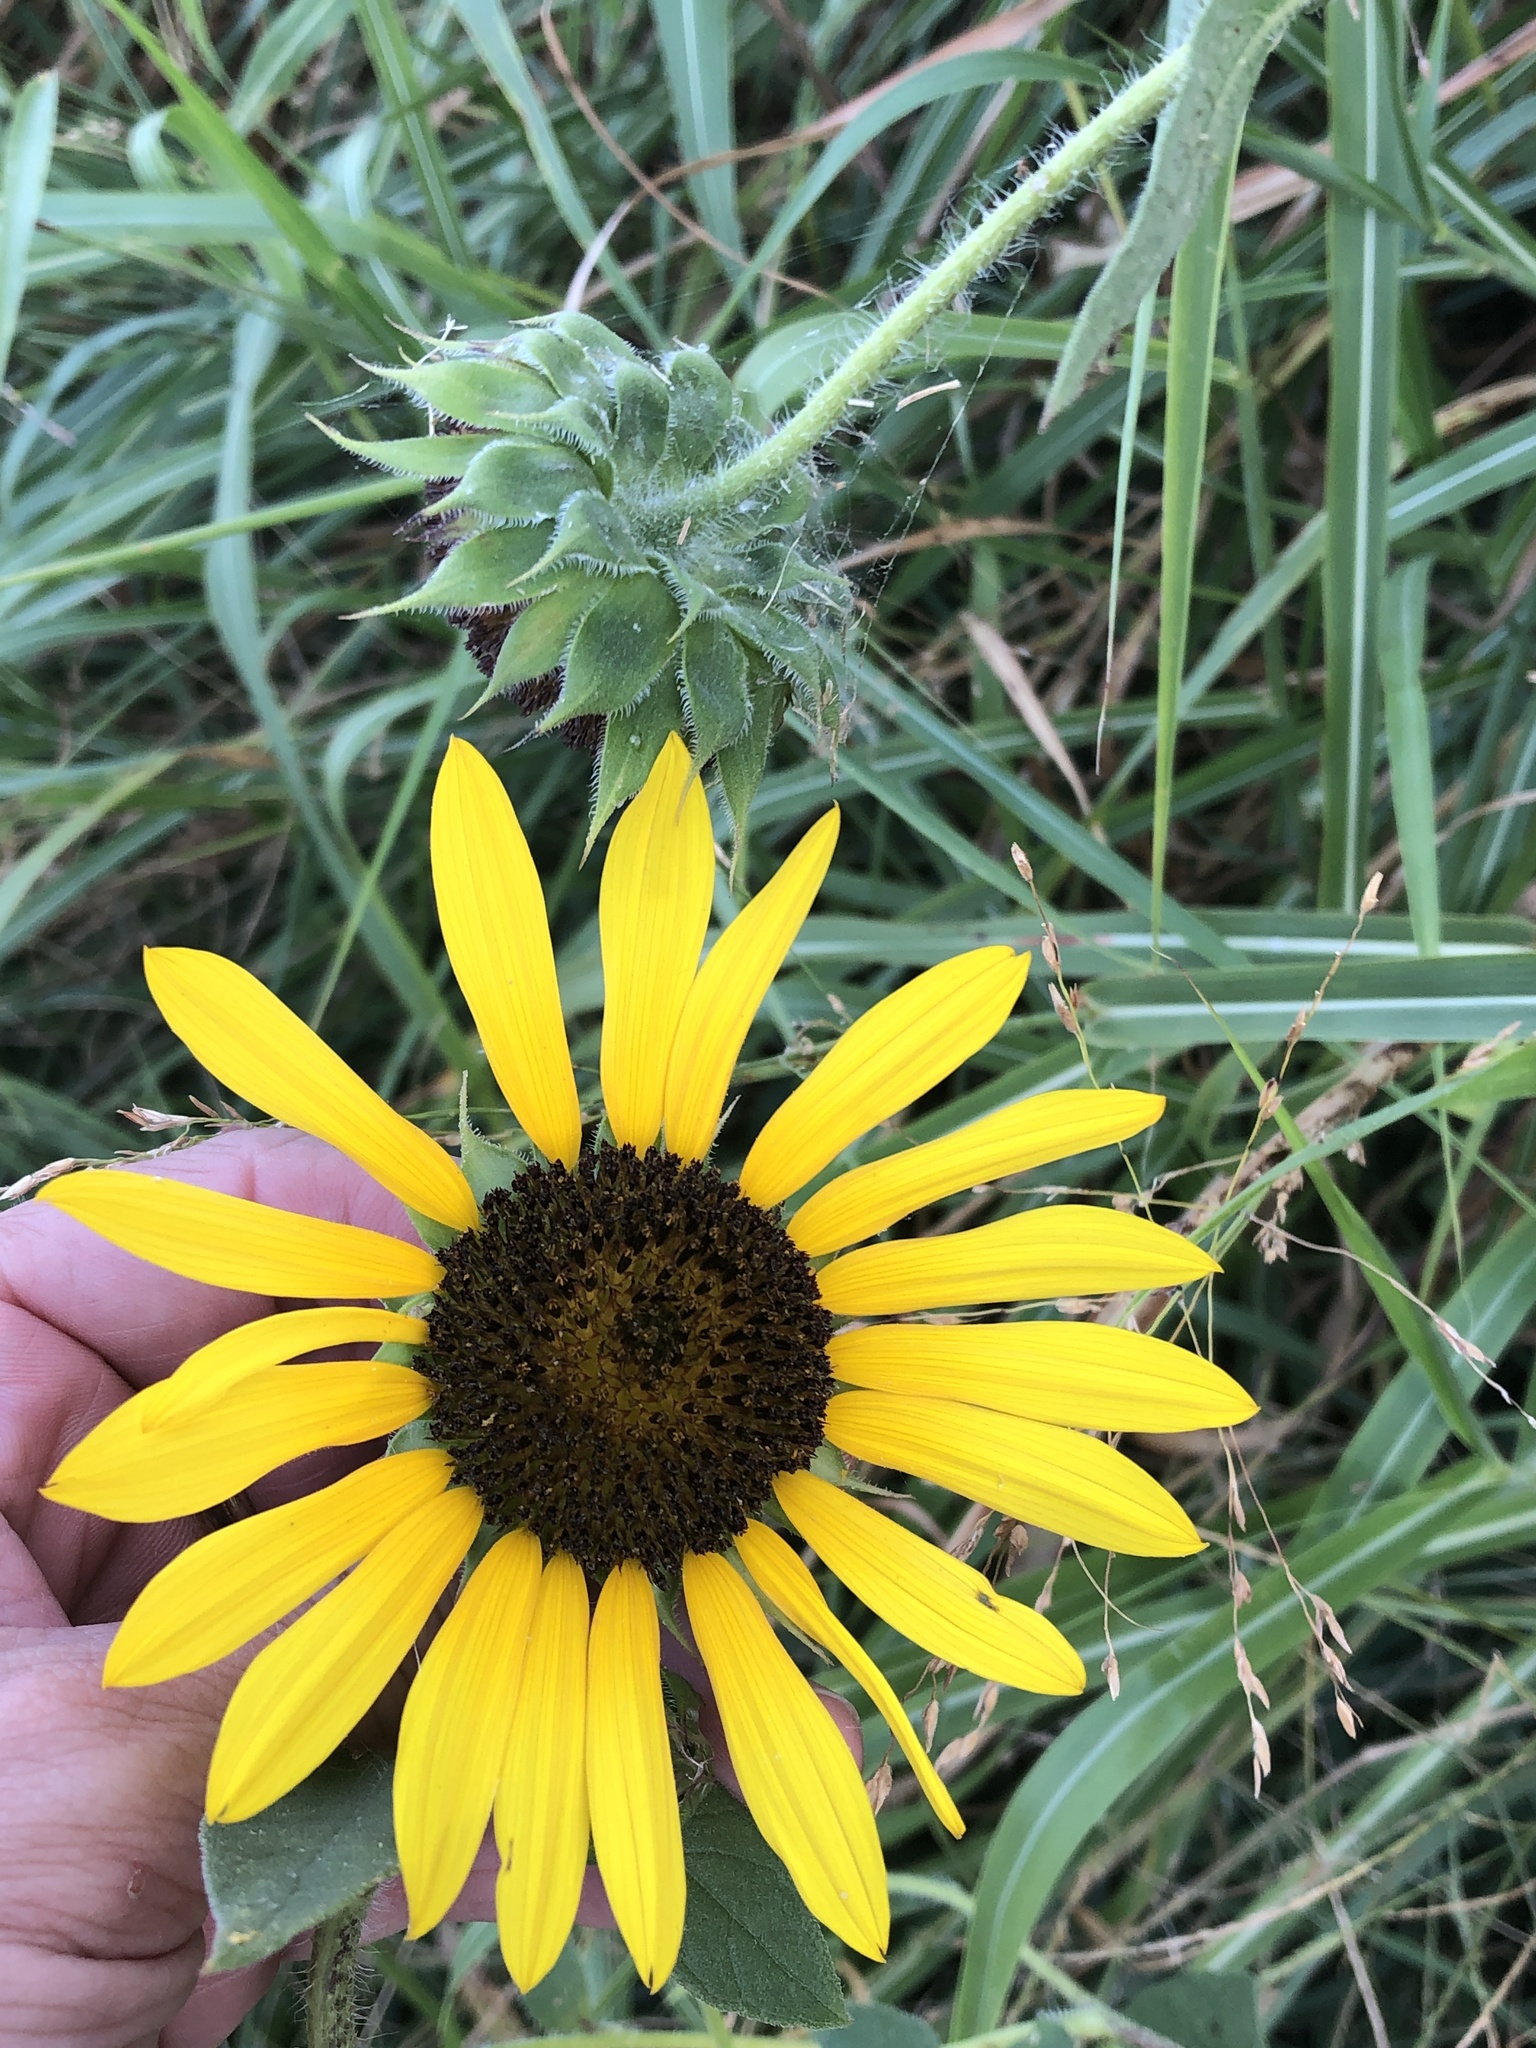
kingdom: Plantae
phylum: Tracheophyta
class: Magnoliopsida
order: Asterales
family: Asteraceae
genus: Helianthus
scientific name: Helianthus annuus
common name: Sunflower
